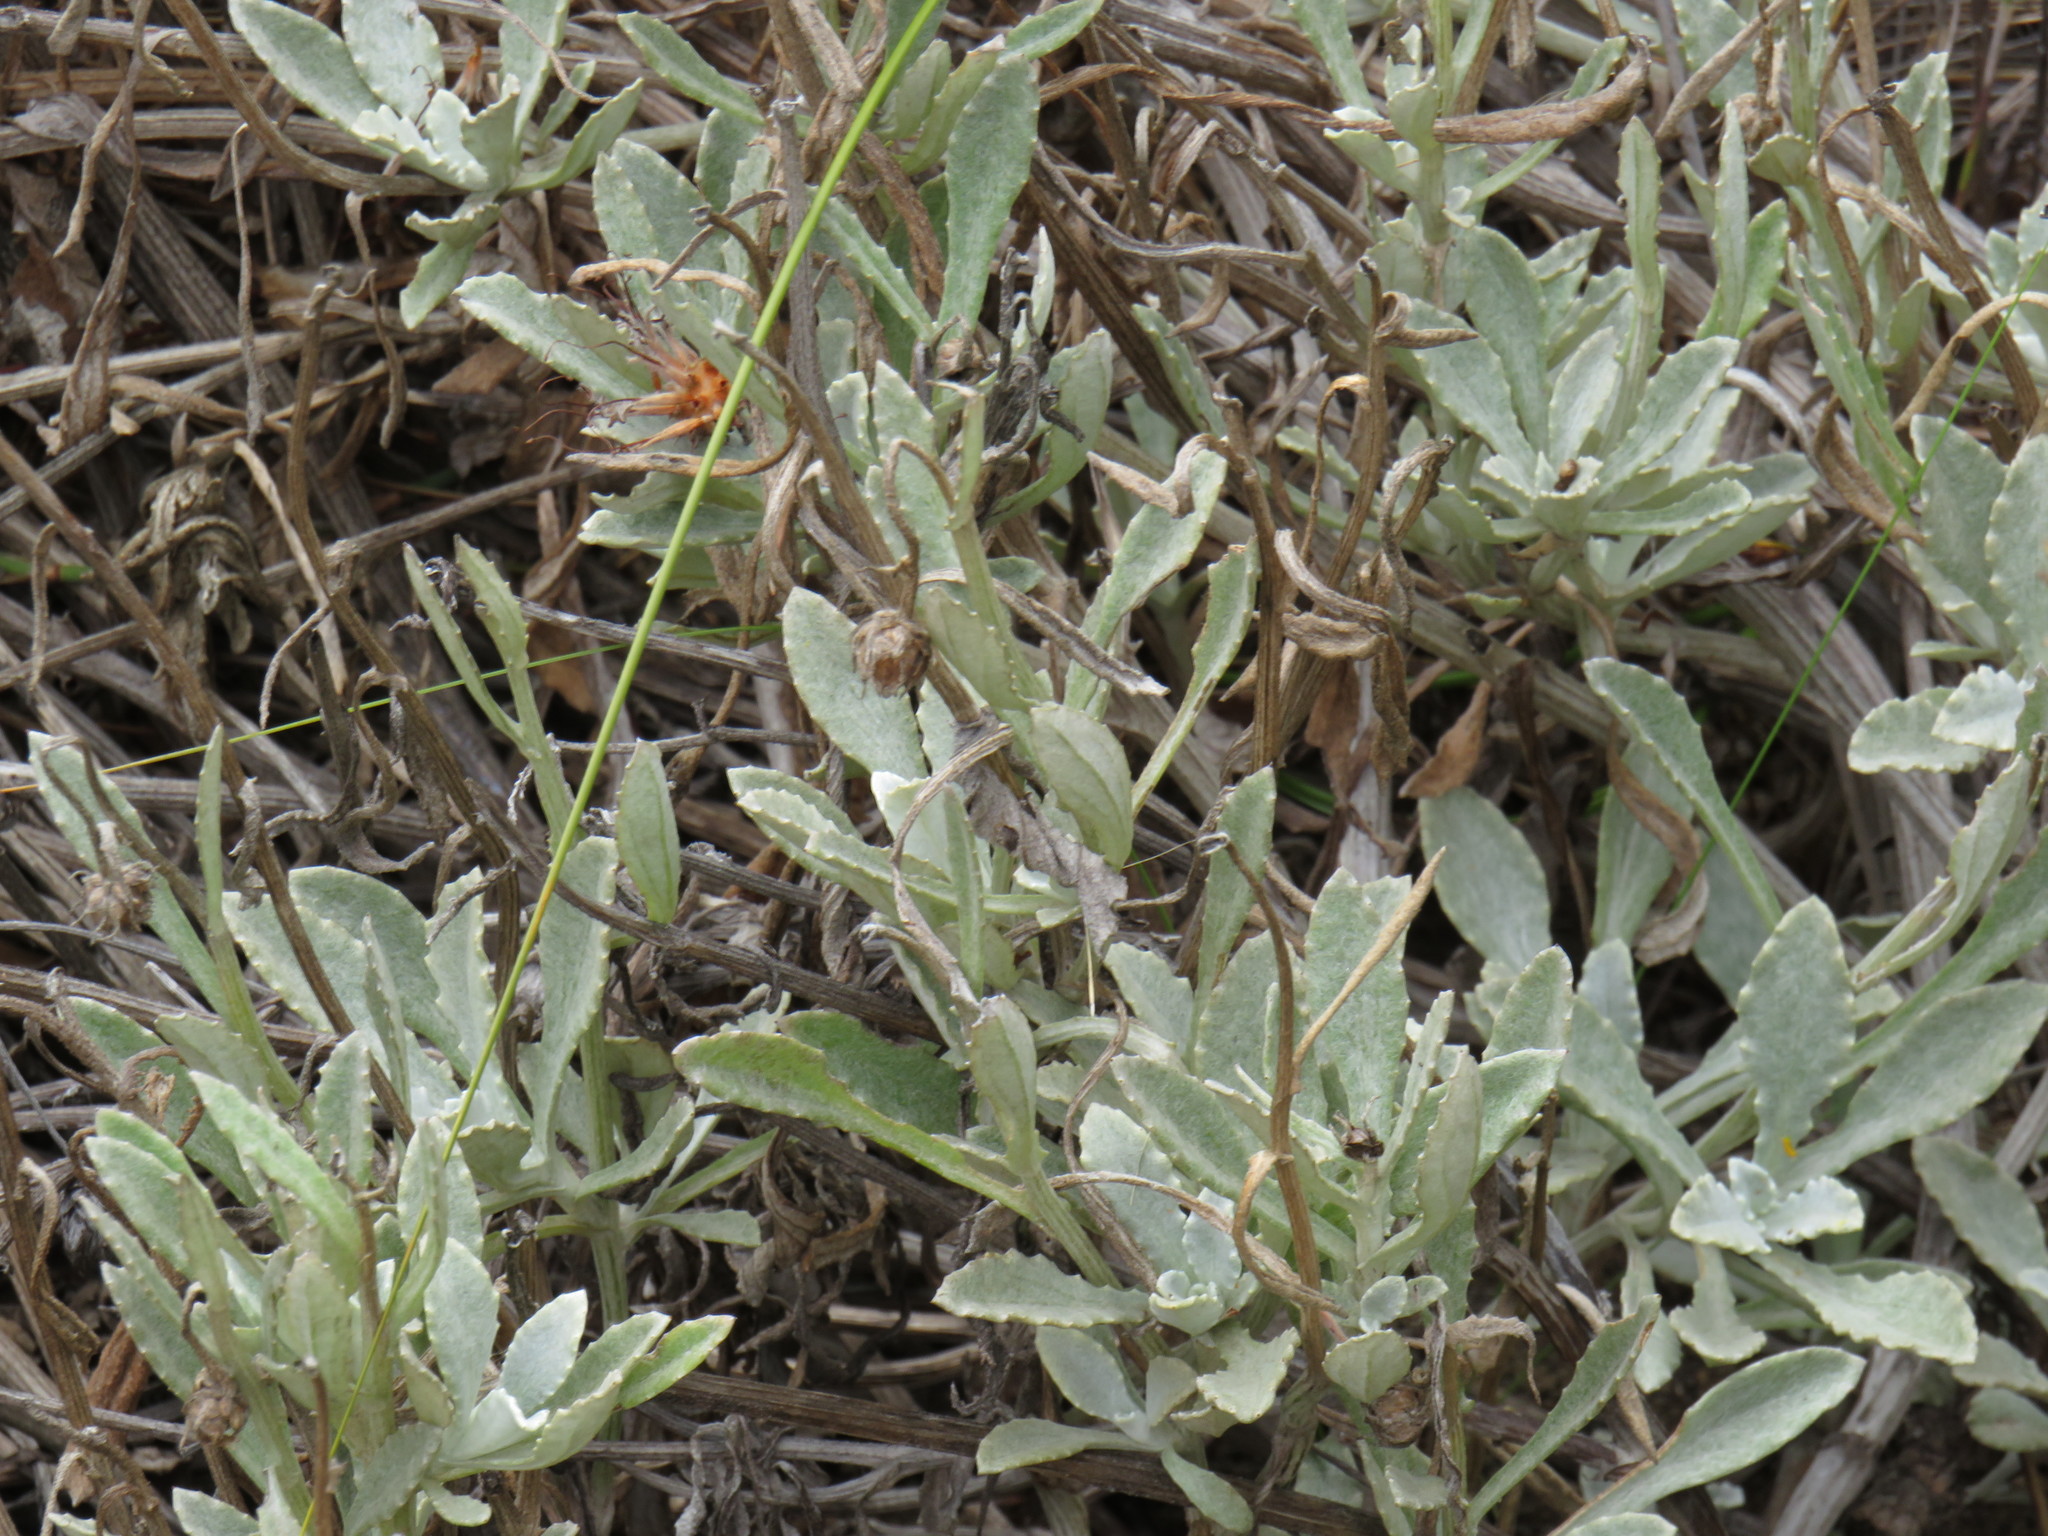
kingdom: Plantae
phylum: Tracheophyta
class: Magnoliopsida
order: Asterales
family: Asteraceae
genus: Arctotis
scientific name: Arctotis bellidifolia
